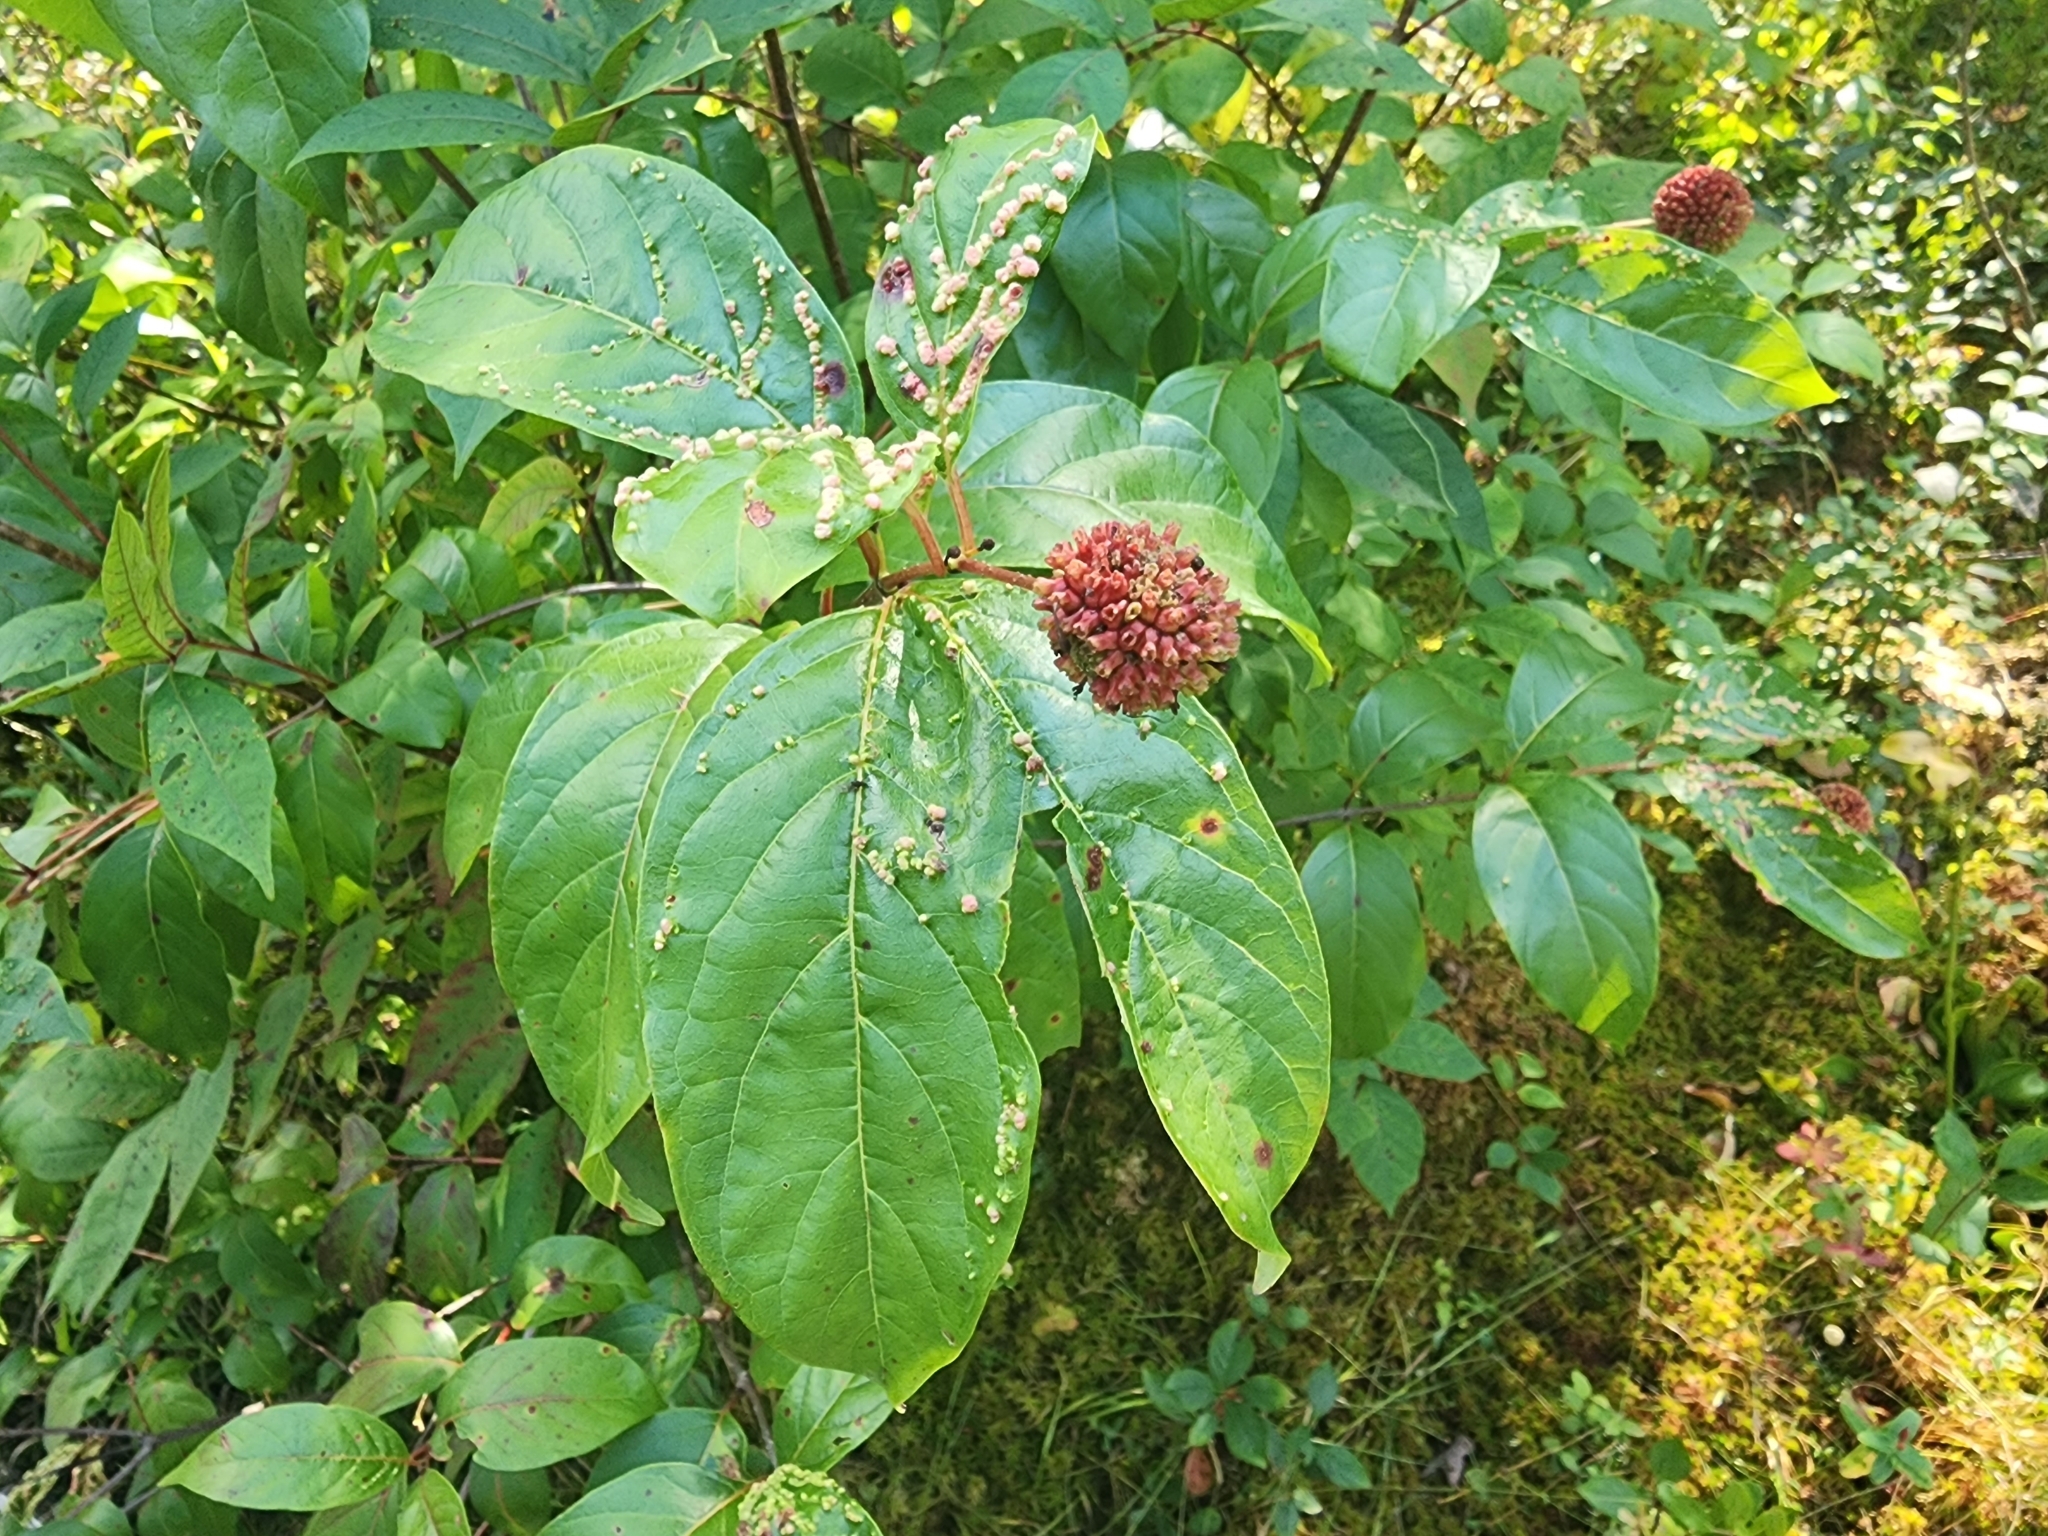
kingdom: Plantae
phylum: Tracheophyta
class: Magnoliopsida
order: Gentianales
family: Rubiaceae
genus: Cephalanthus
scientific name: Cephalanthus occidentalis
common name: Button-willow
